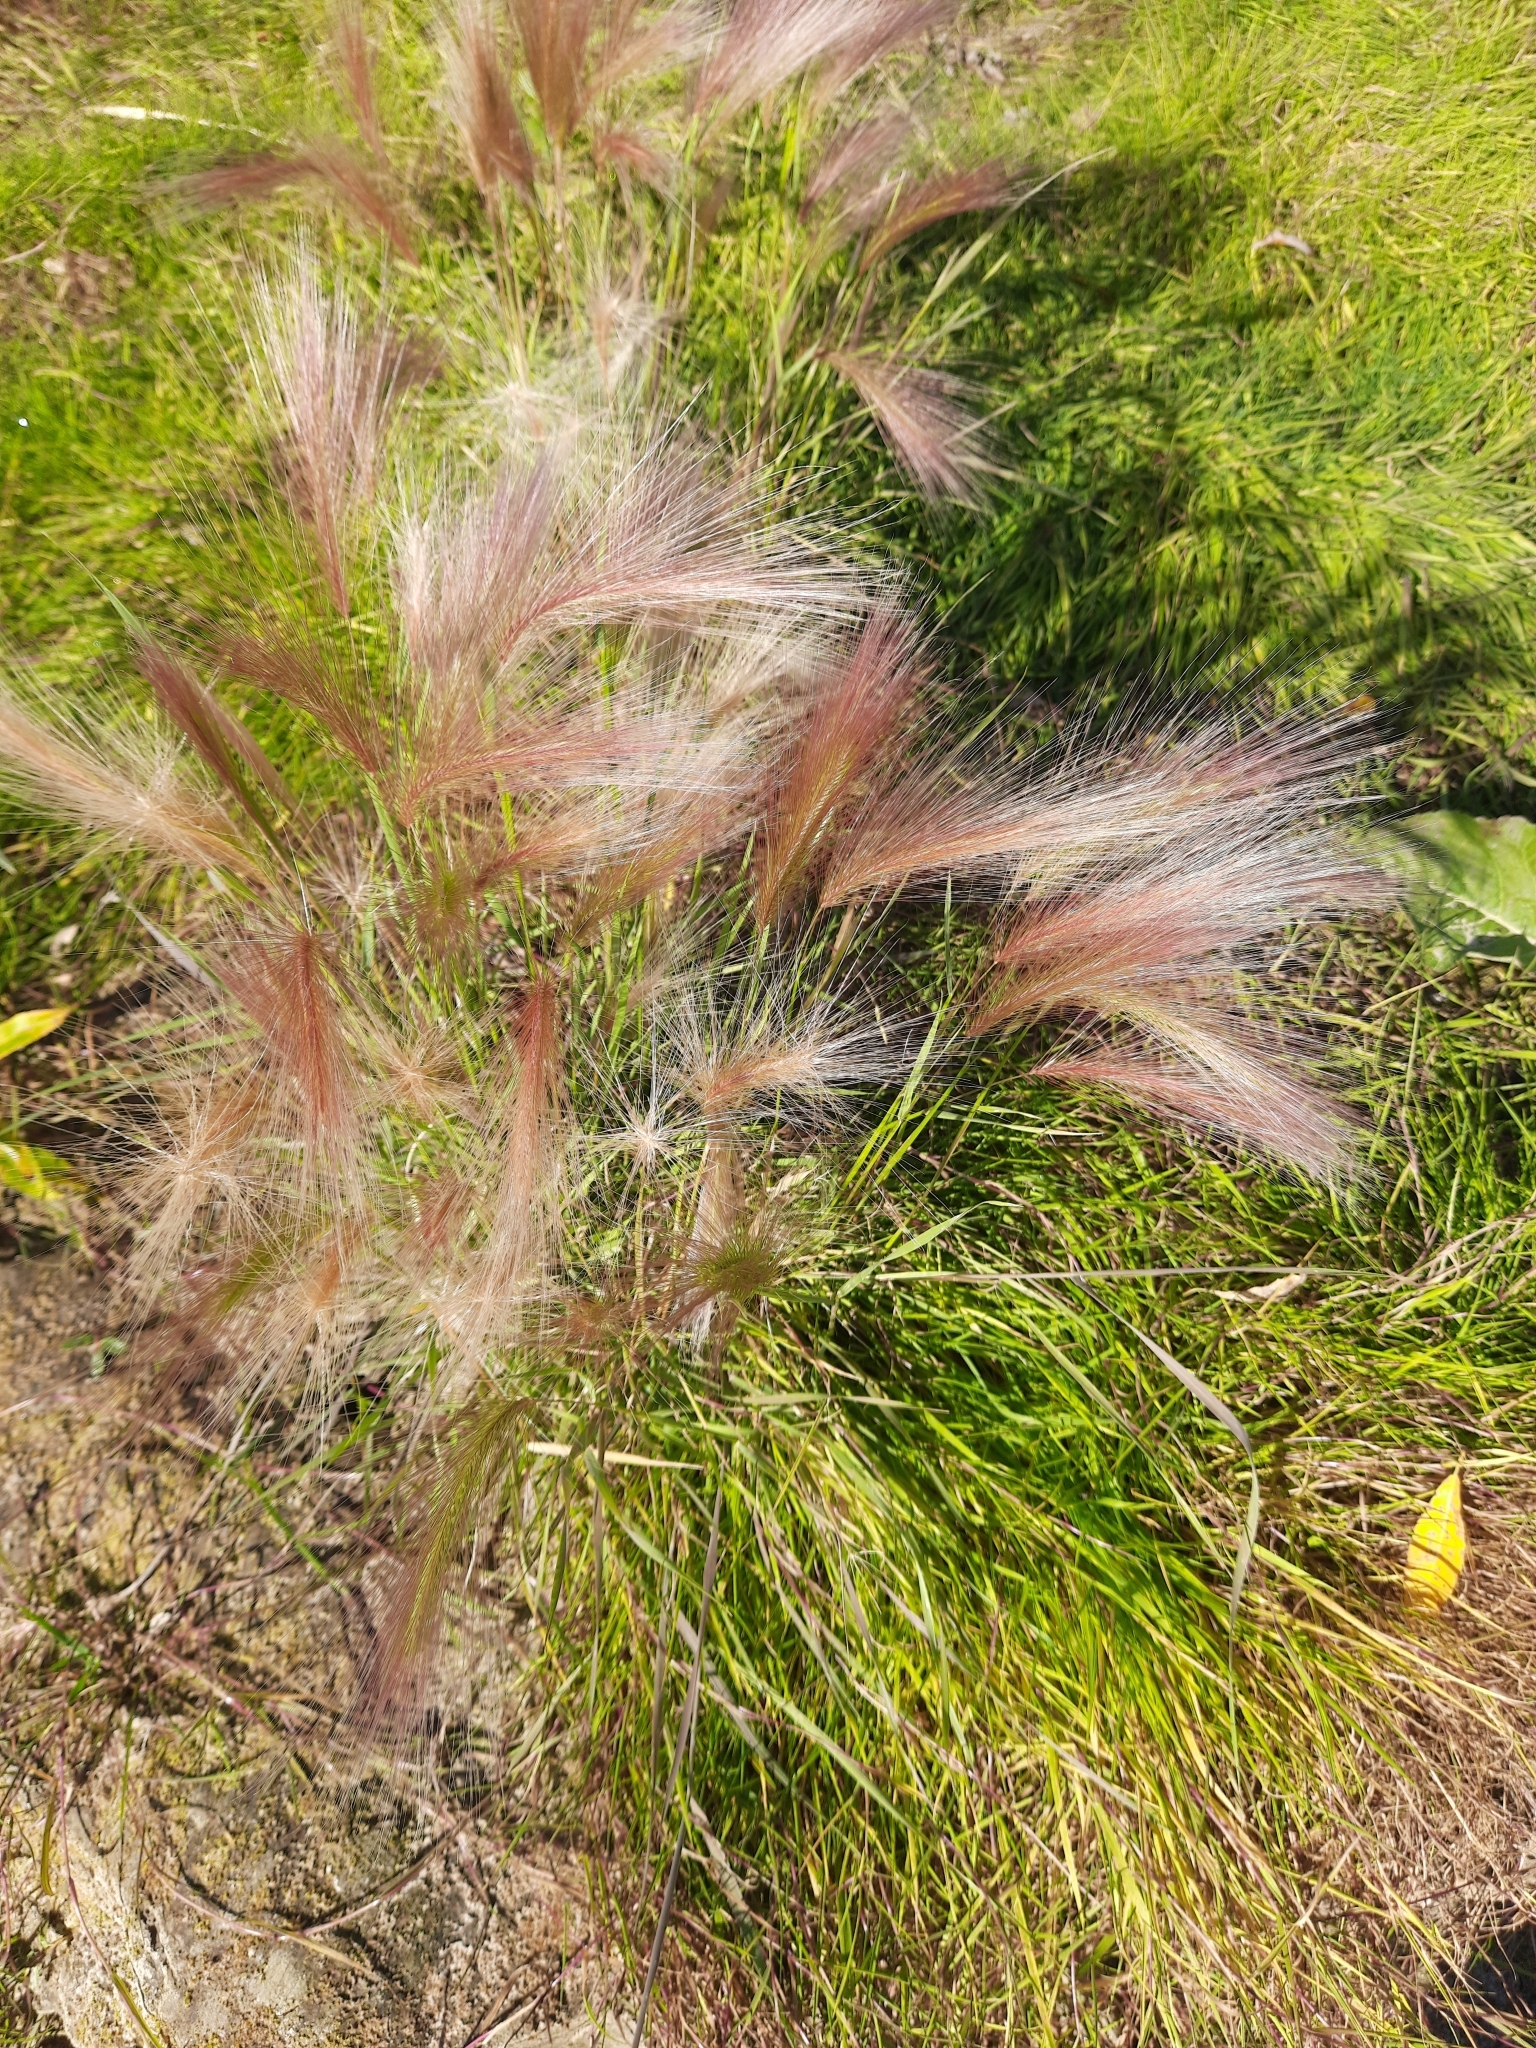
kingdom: Plantae
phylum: Tracheophyta
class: Liliopsida
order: Poales
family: Poaceae
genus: Hordeum
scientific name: Hordeum jubatum
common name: Foxtail barley
